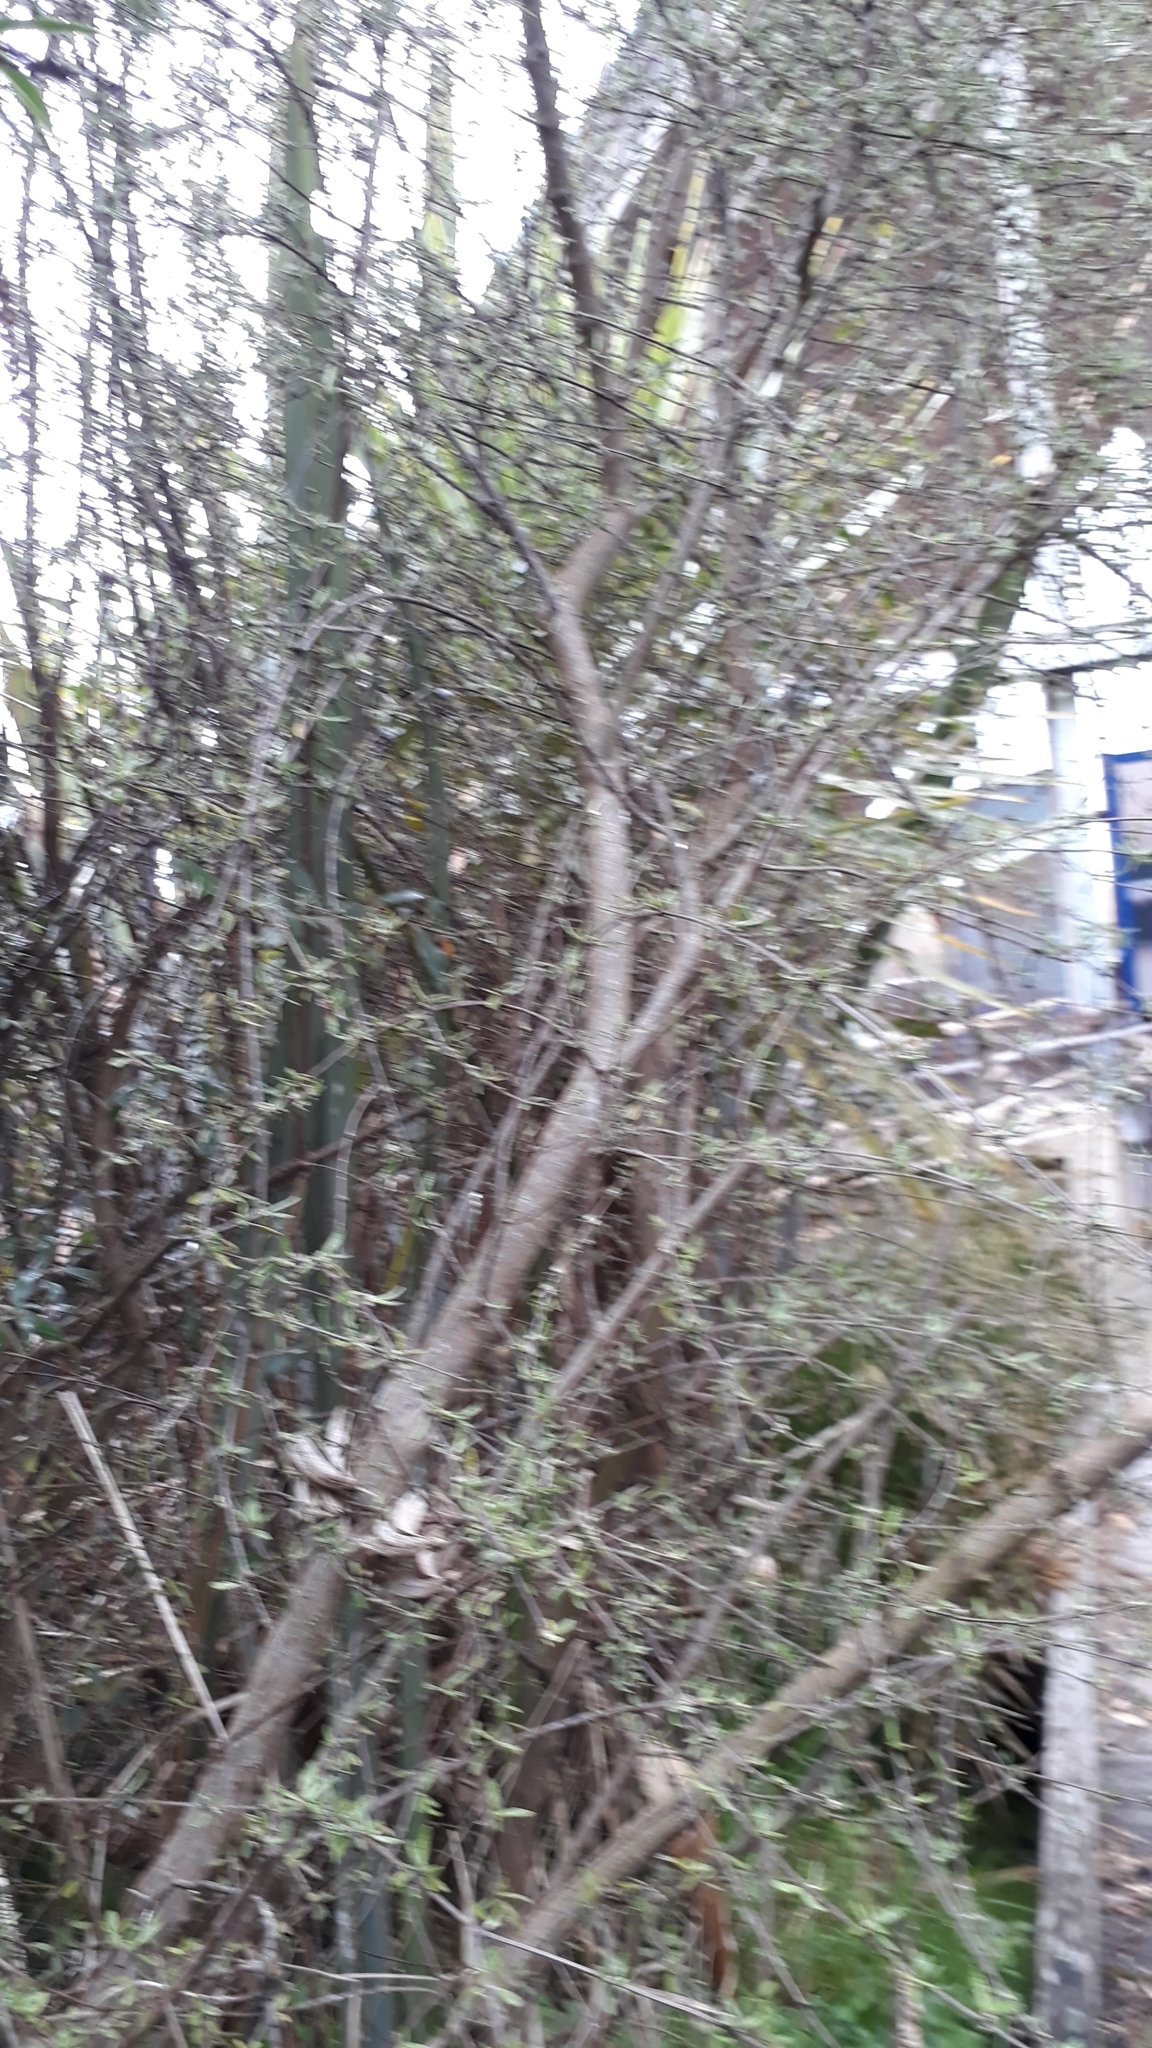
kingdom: Plantae
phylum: Tracheophyta
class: Magnoliopsida
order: Asterales
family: Asteraceae
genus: Olearia
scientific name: Olearia bullata
